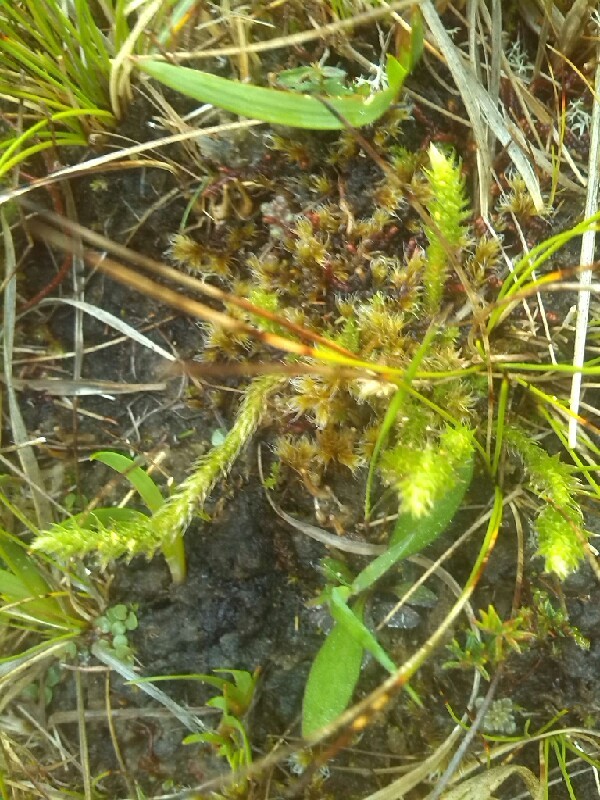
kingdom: Plantae
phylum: Tracheophyta
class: Lycopodiopsida
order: Selaginellales
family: Selaginellaceae
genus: Selaginella
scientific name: Selaginella selaginoides
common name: Prickly mountain-moss
